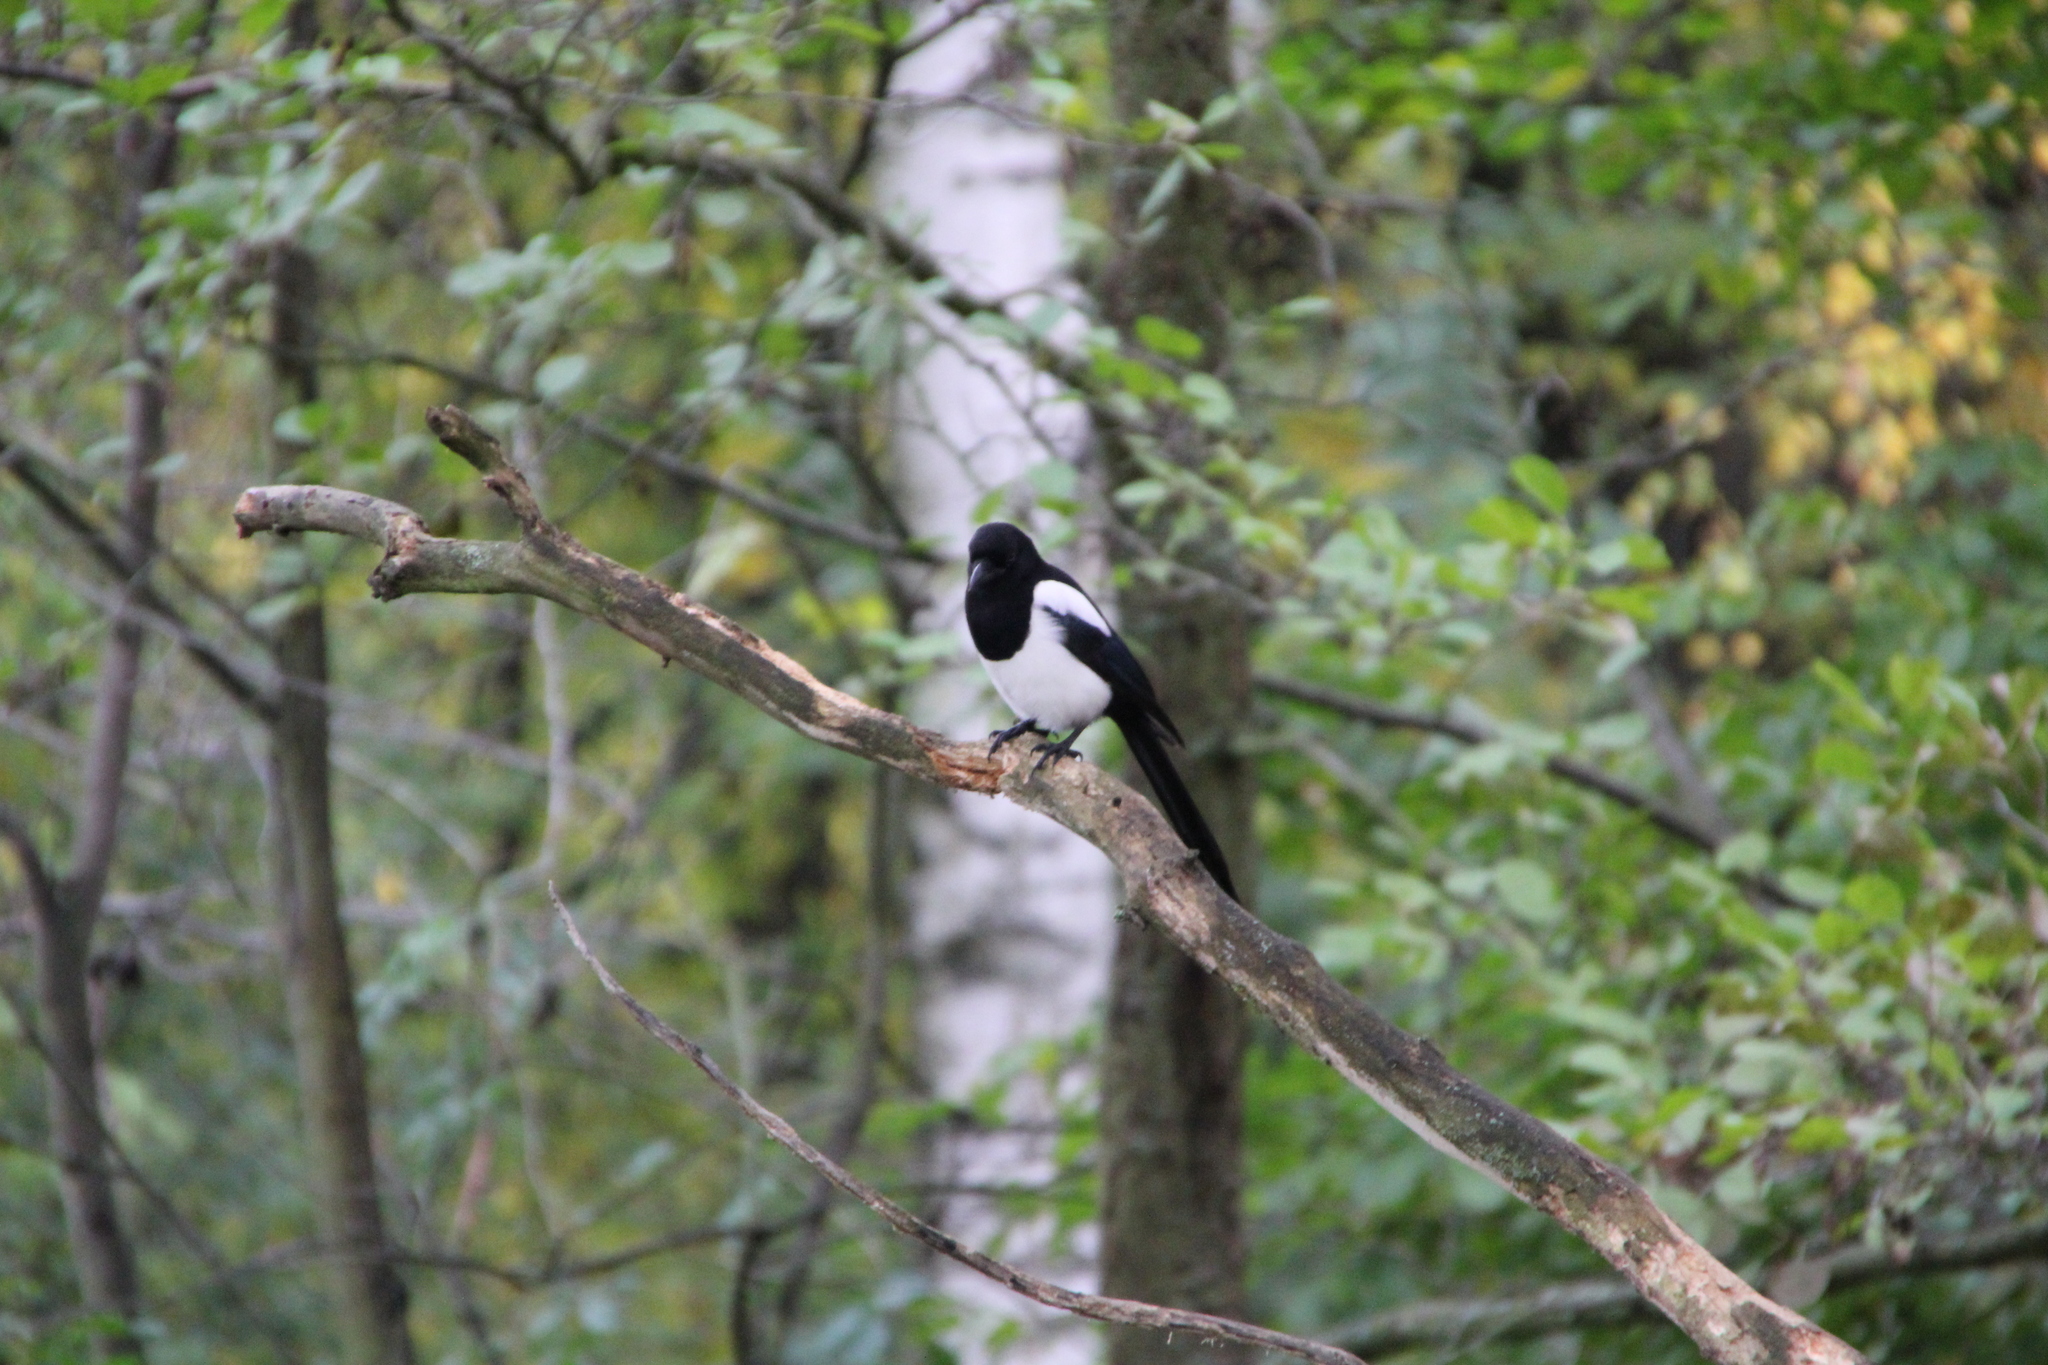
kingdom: Animalia
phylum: Chordata
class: Aves
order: Passeriformes
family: Corvidae
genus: Pica
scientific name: Pica pica
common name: Eurasian magpie
